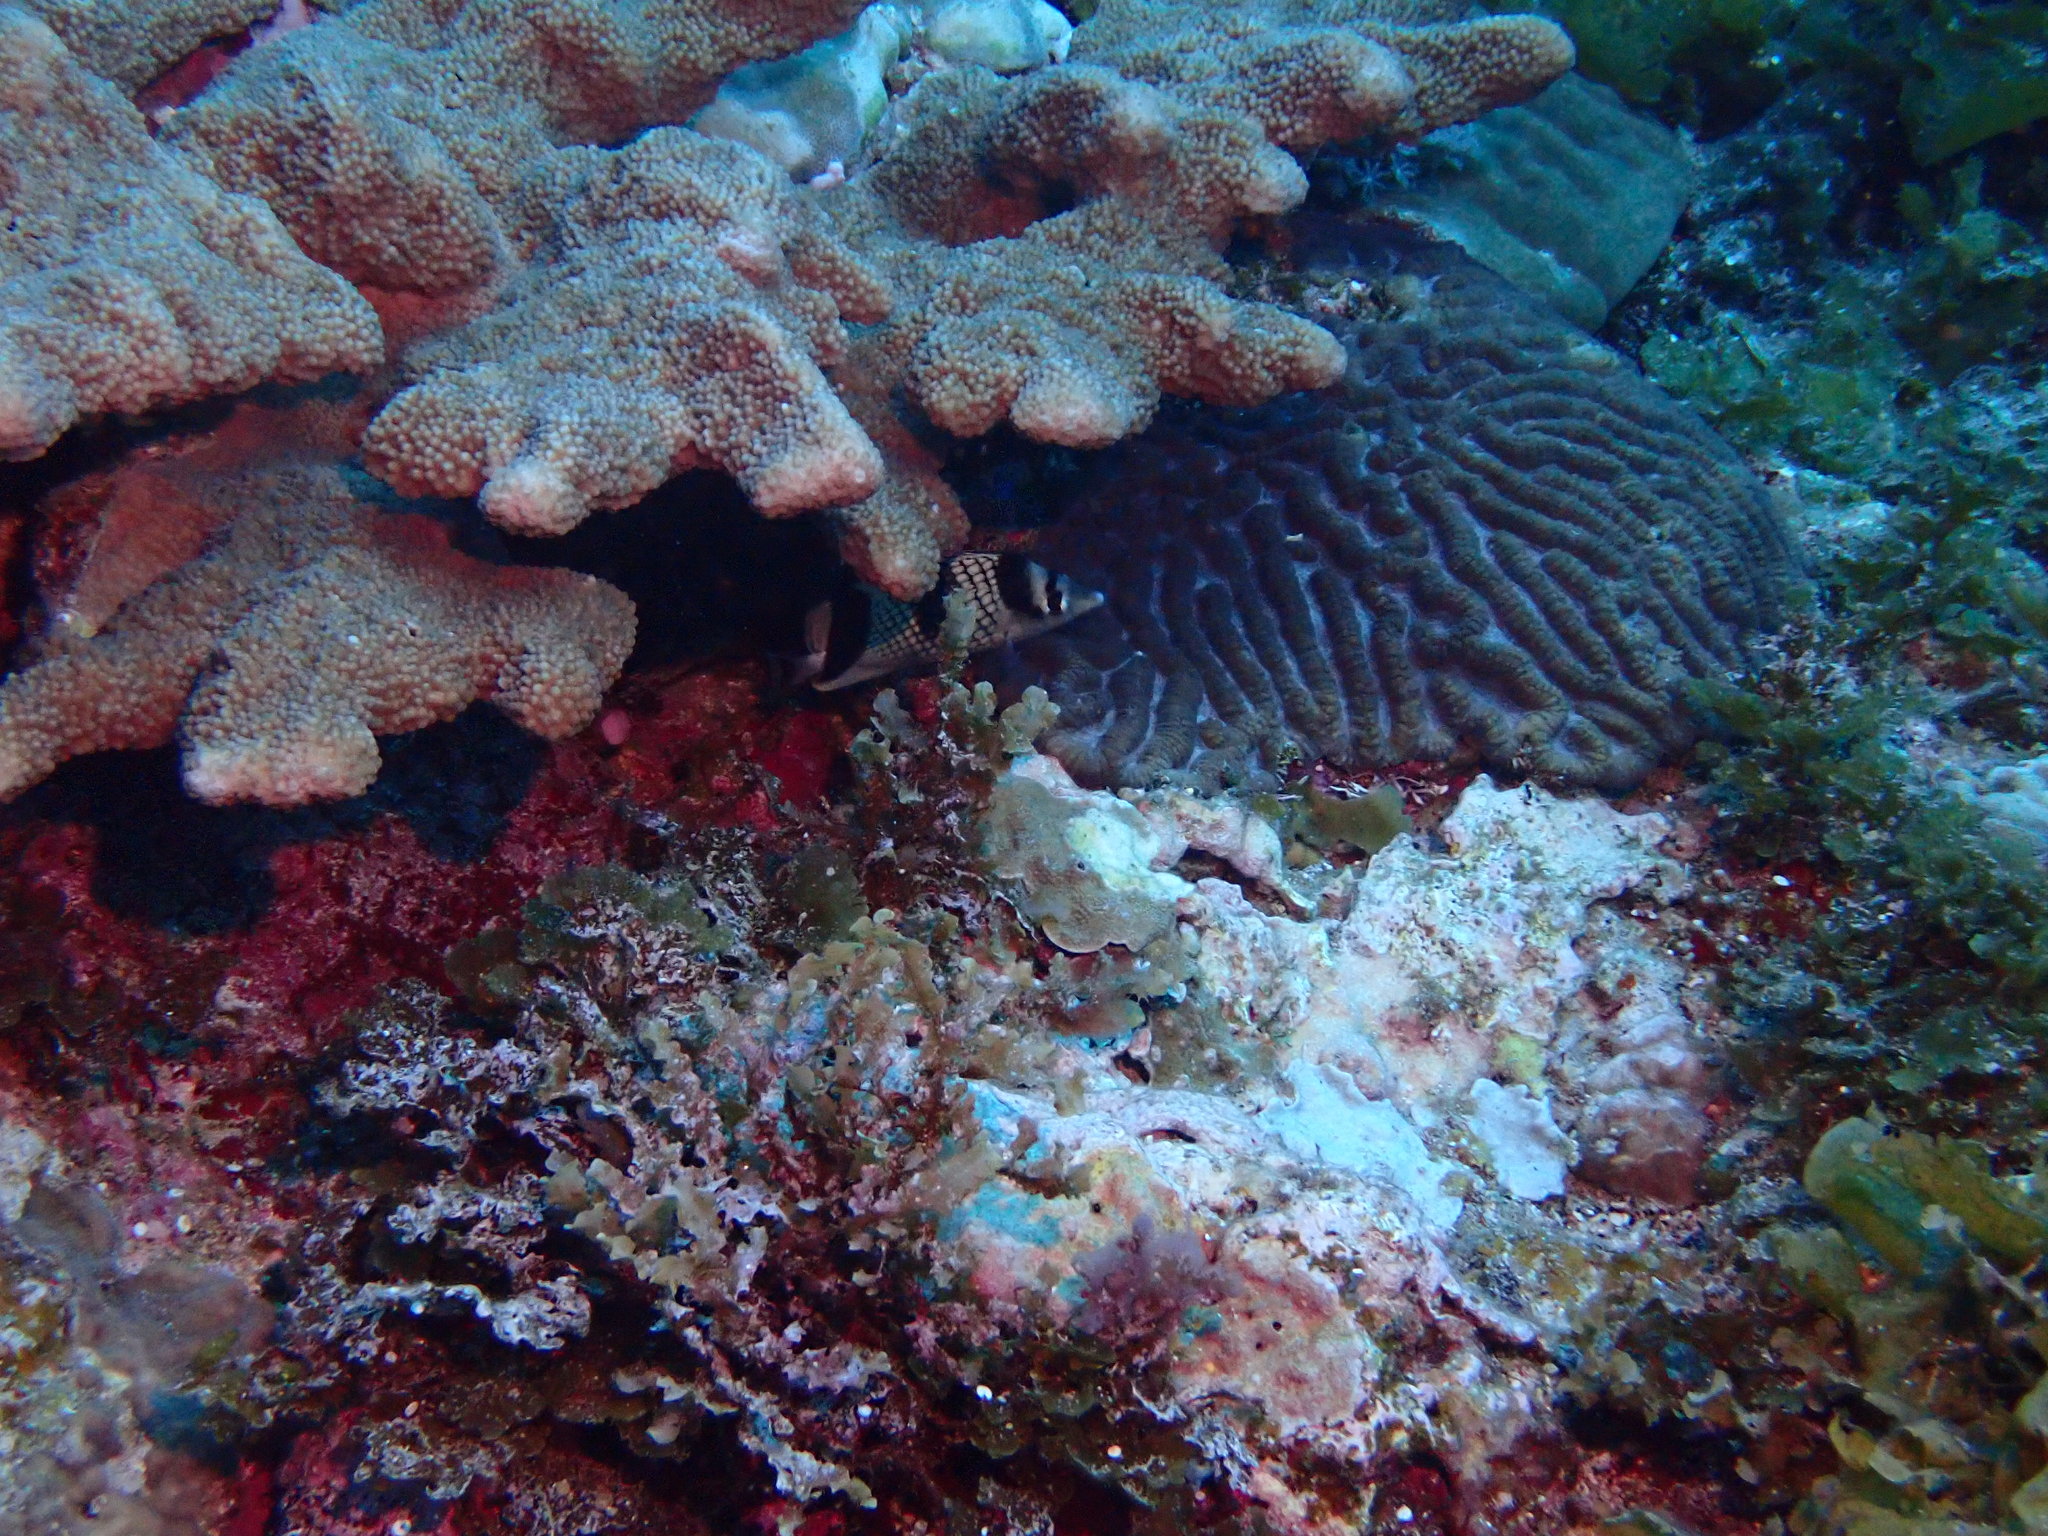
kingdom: Animalia
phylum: Chordata
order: Perciformes
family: Chaetodontidae
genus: Chaetodon
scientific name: Chaetodon argentatus
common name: Asian butterflyfish
